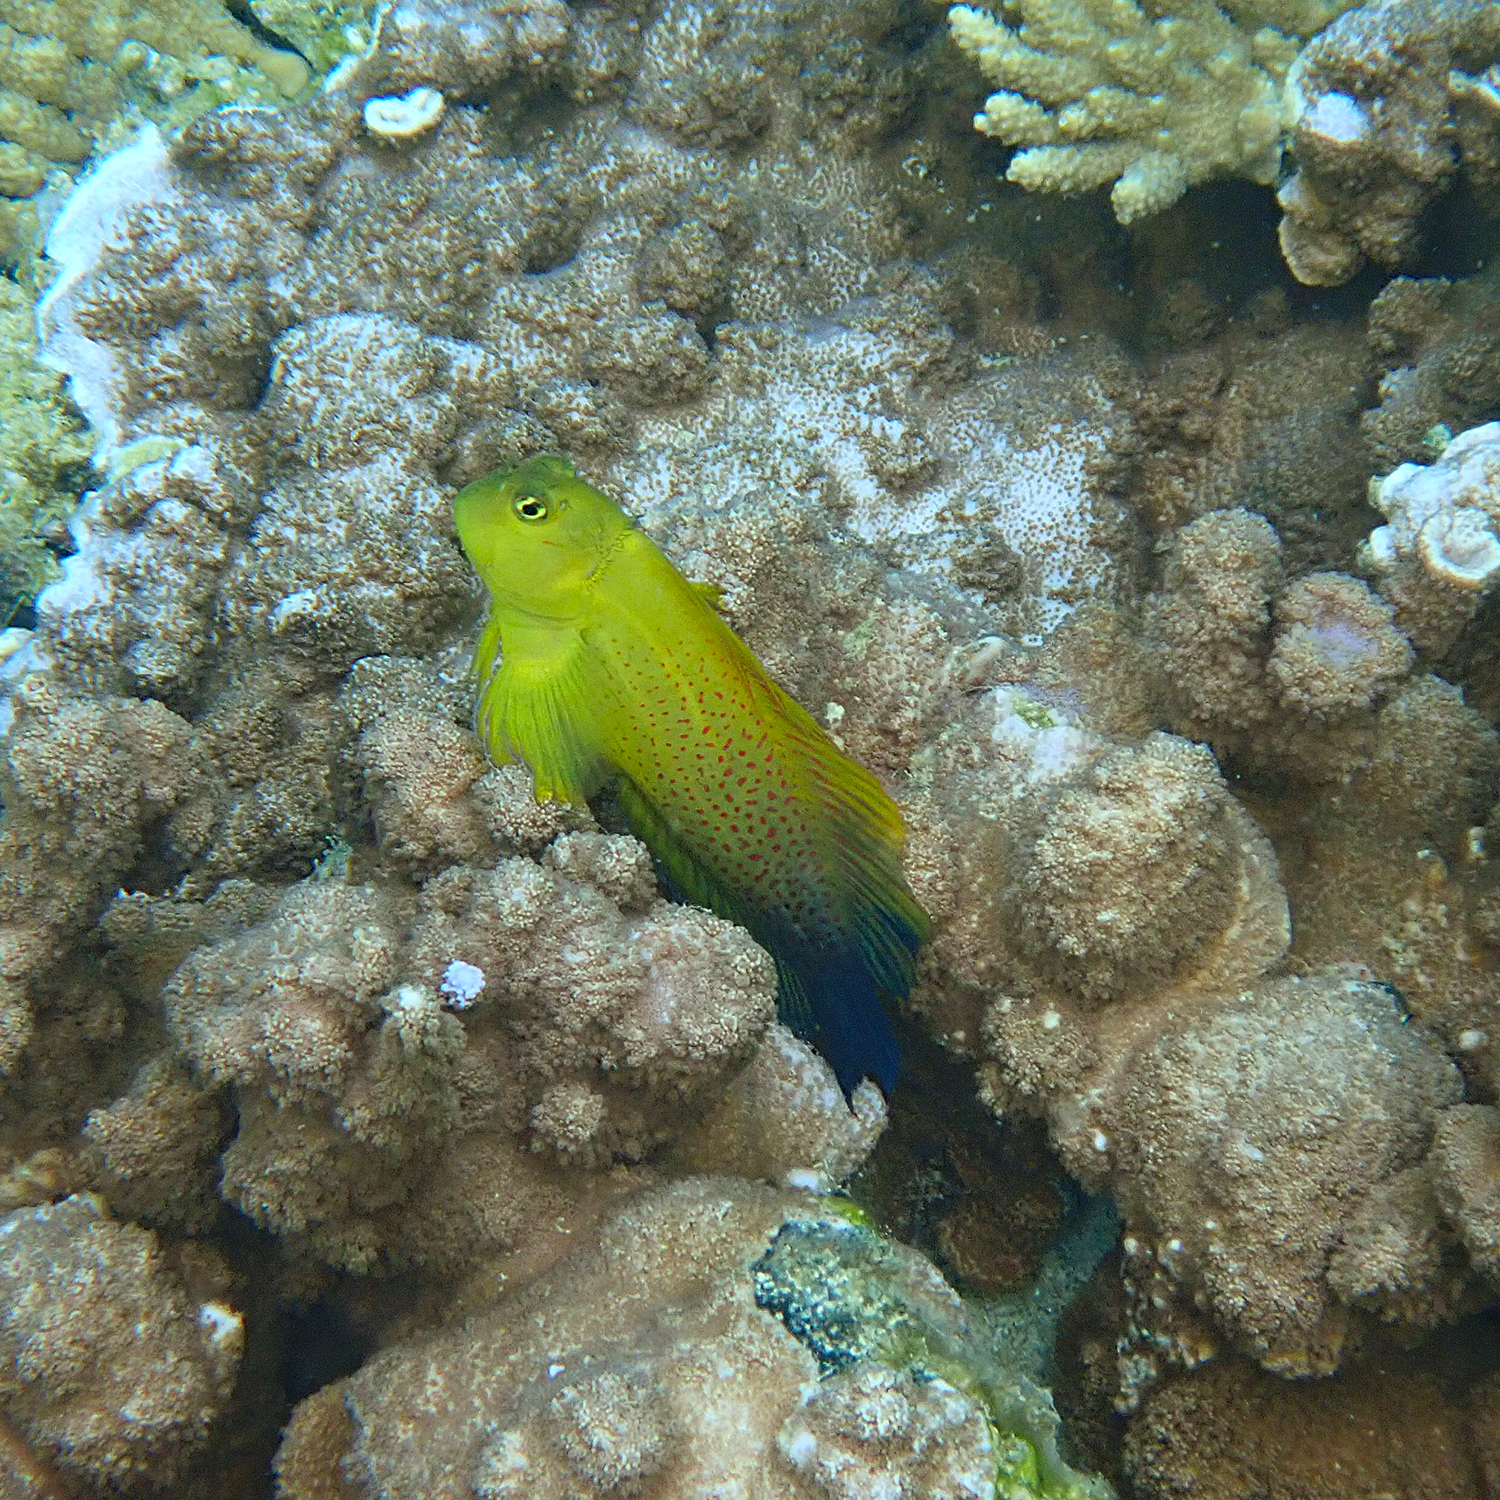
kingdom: Animalia
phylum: Chordata
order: Perciformes
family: Blenniidae
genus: Cirripectes
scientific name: Cirripectes chelomatus
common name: Lady musgrave blenny
